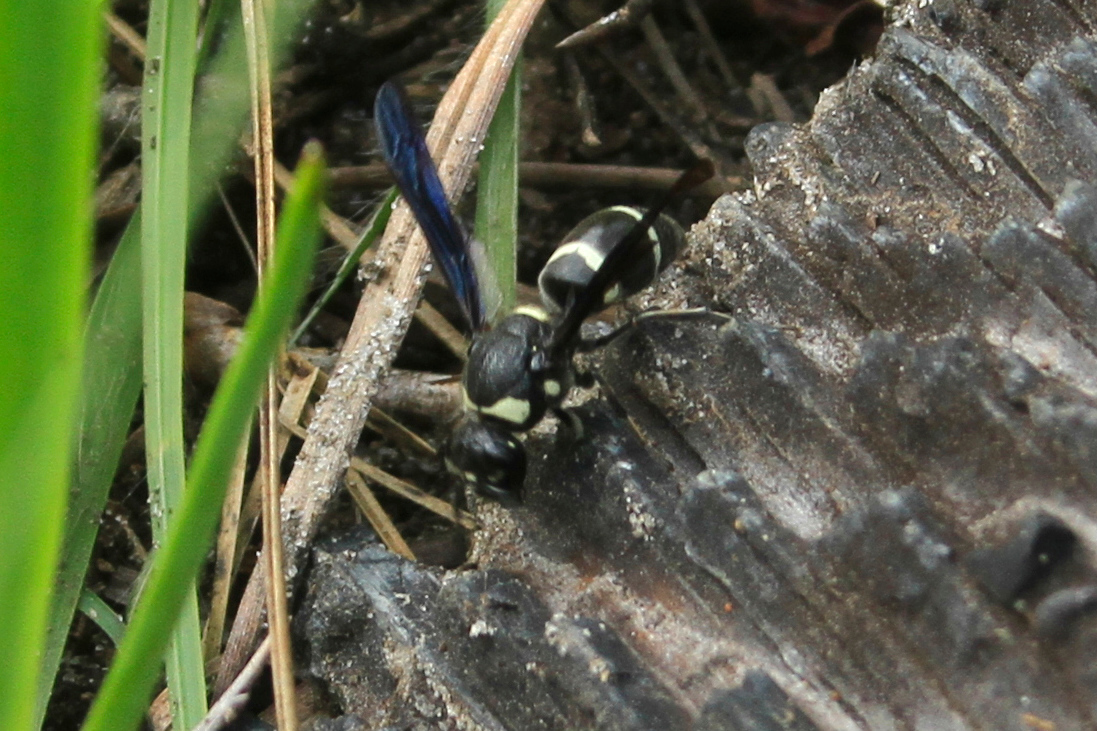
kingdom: Animalia
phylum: Arthropoda
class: Insecta
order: Hymenoptera
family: Eumenidae
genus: Euodynerus
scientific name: Euodynerus schwarzi
